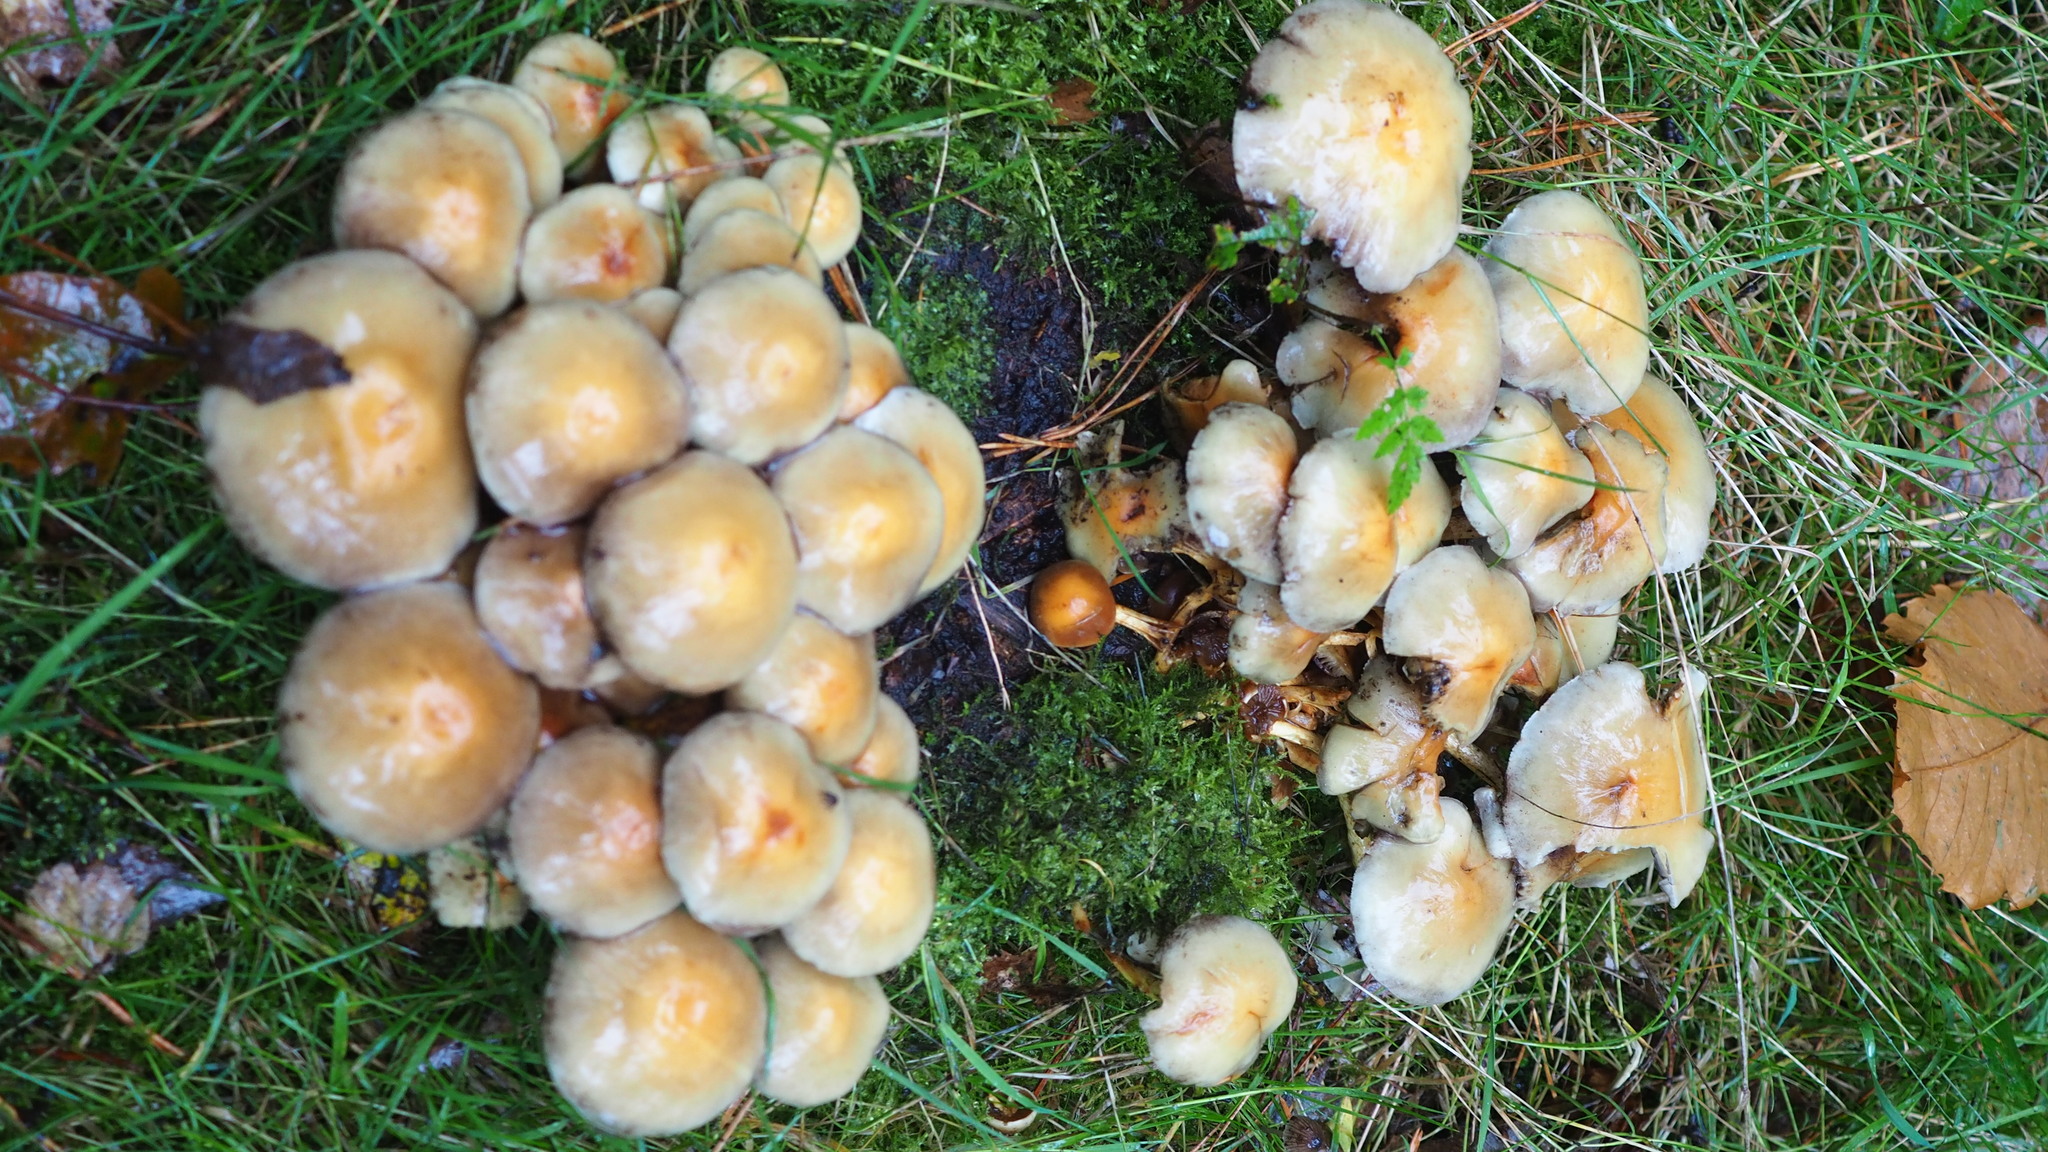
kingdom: Fungi
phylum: Basidiomycota
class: Agaricomycetes
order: Agaricales
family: Strophariaceae
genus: Hypholoma
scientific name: Hypholoma fasciculare
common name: Sulphur tuft
